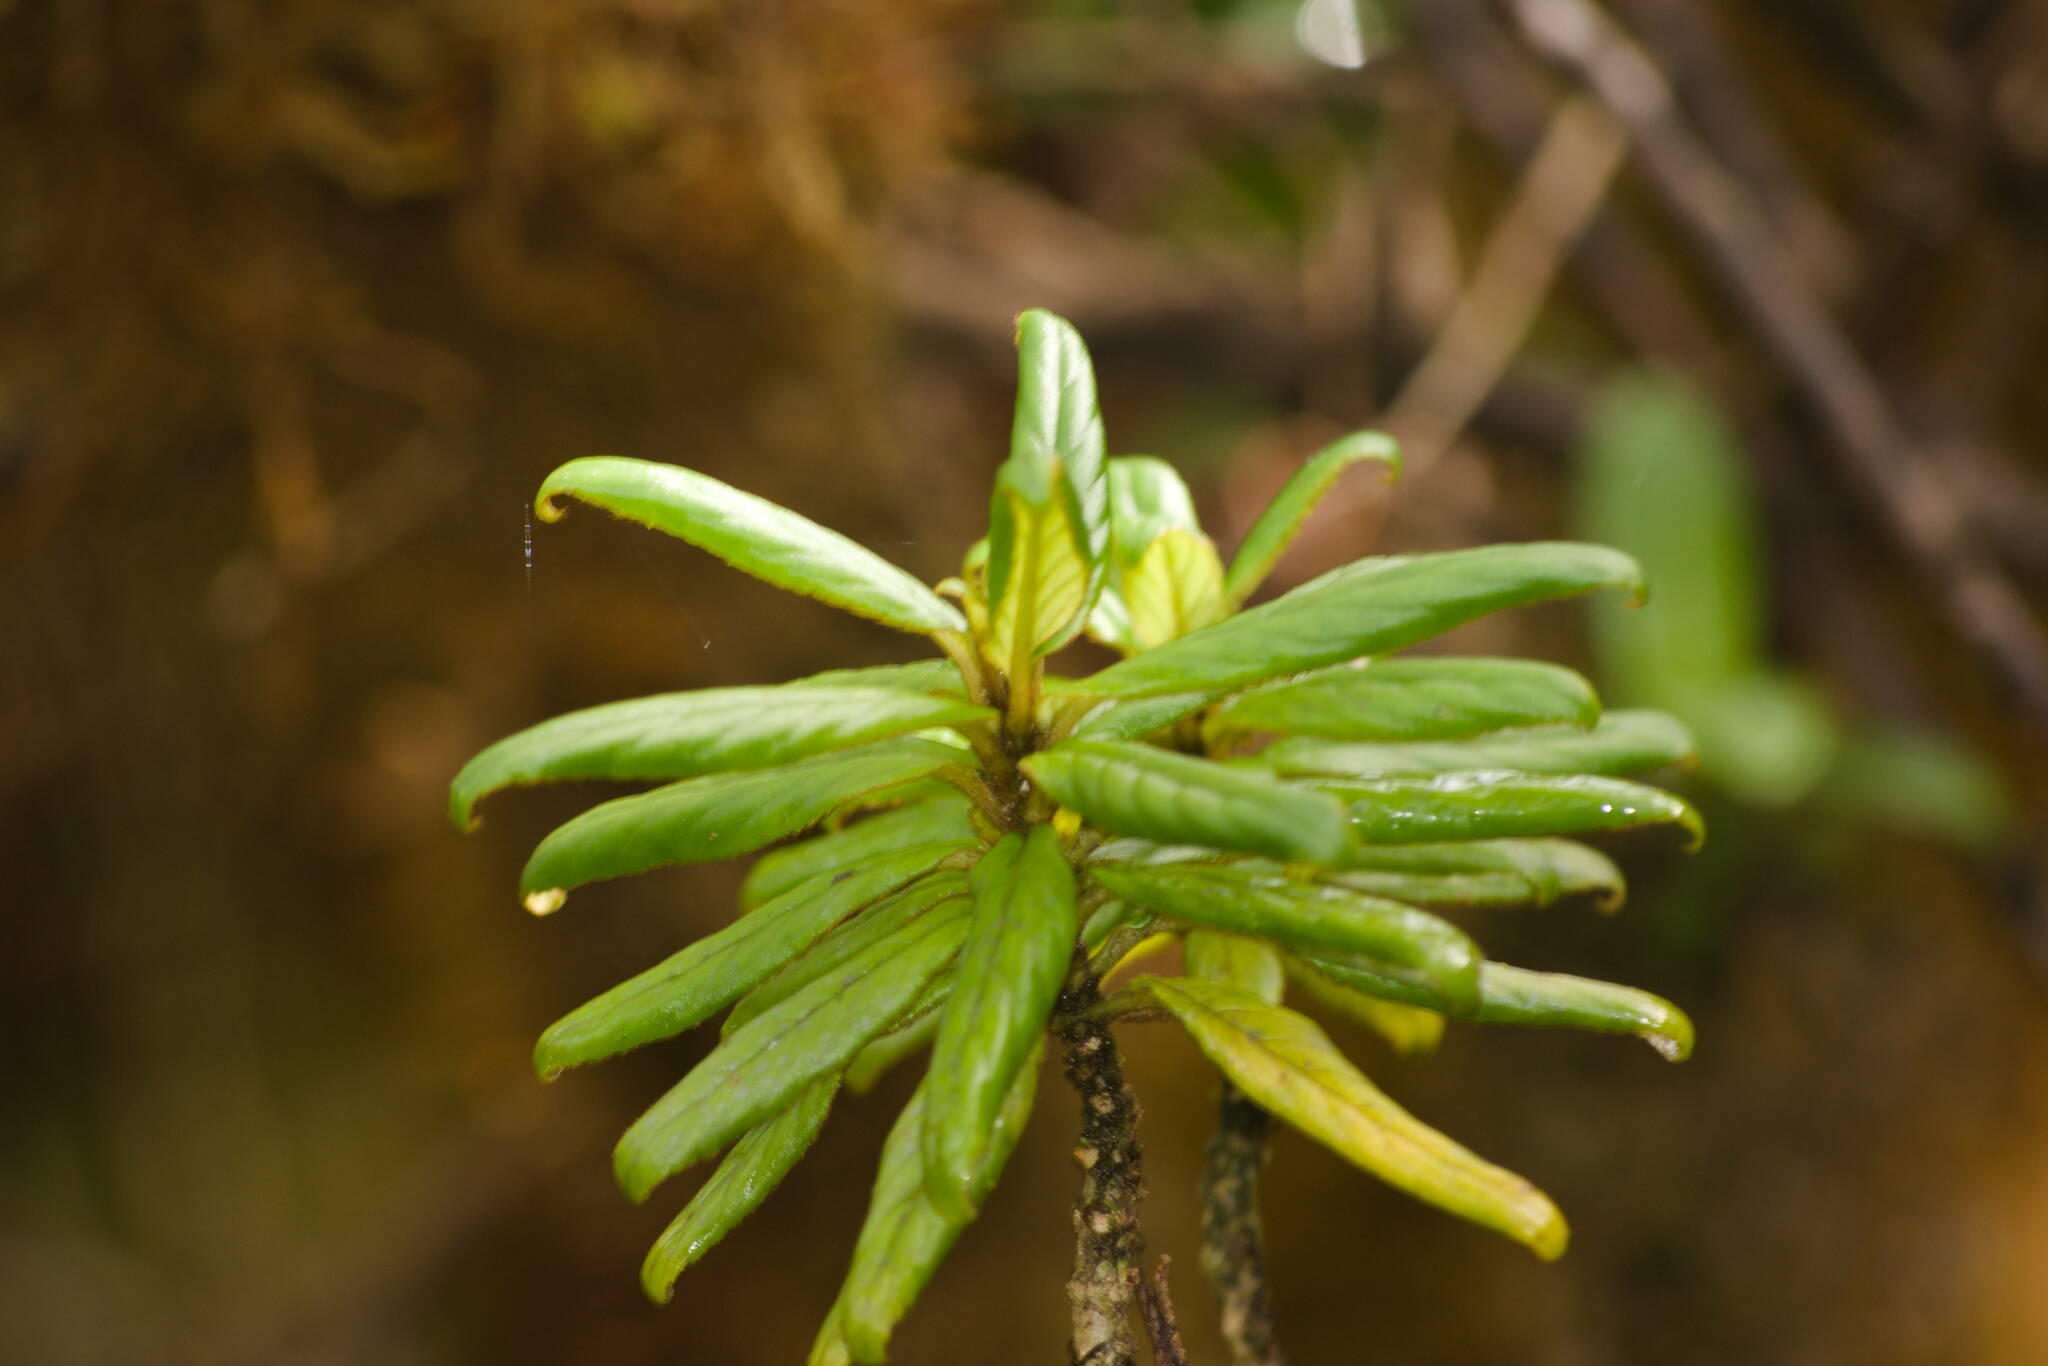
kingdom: Plantae
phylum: Tracheophyta
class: Magnoliopsida
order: Lamiales
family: Gesneriaceae
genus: Cyrtandra
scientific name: Cyrtandra procera
